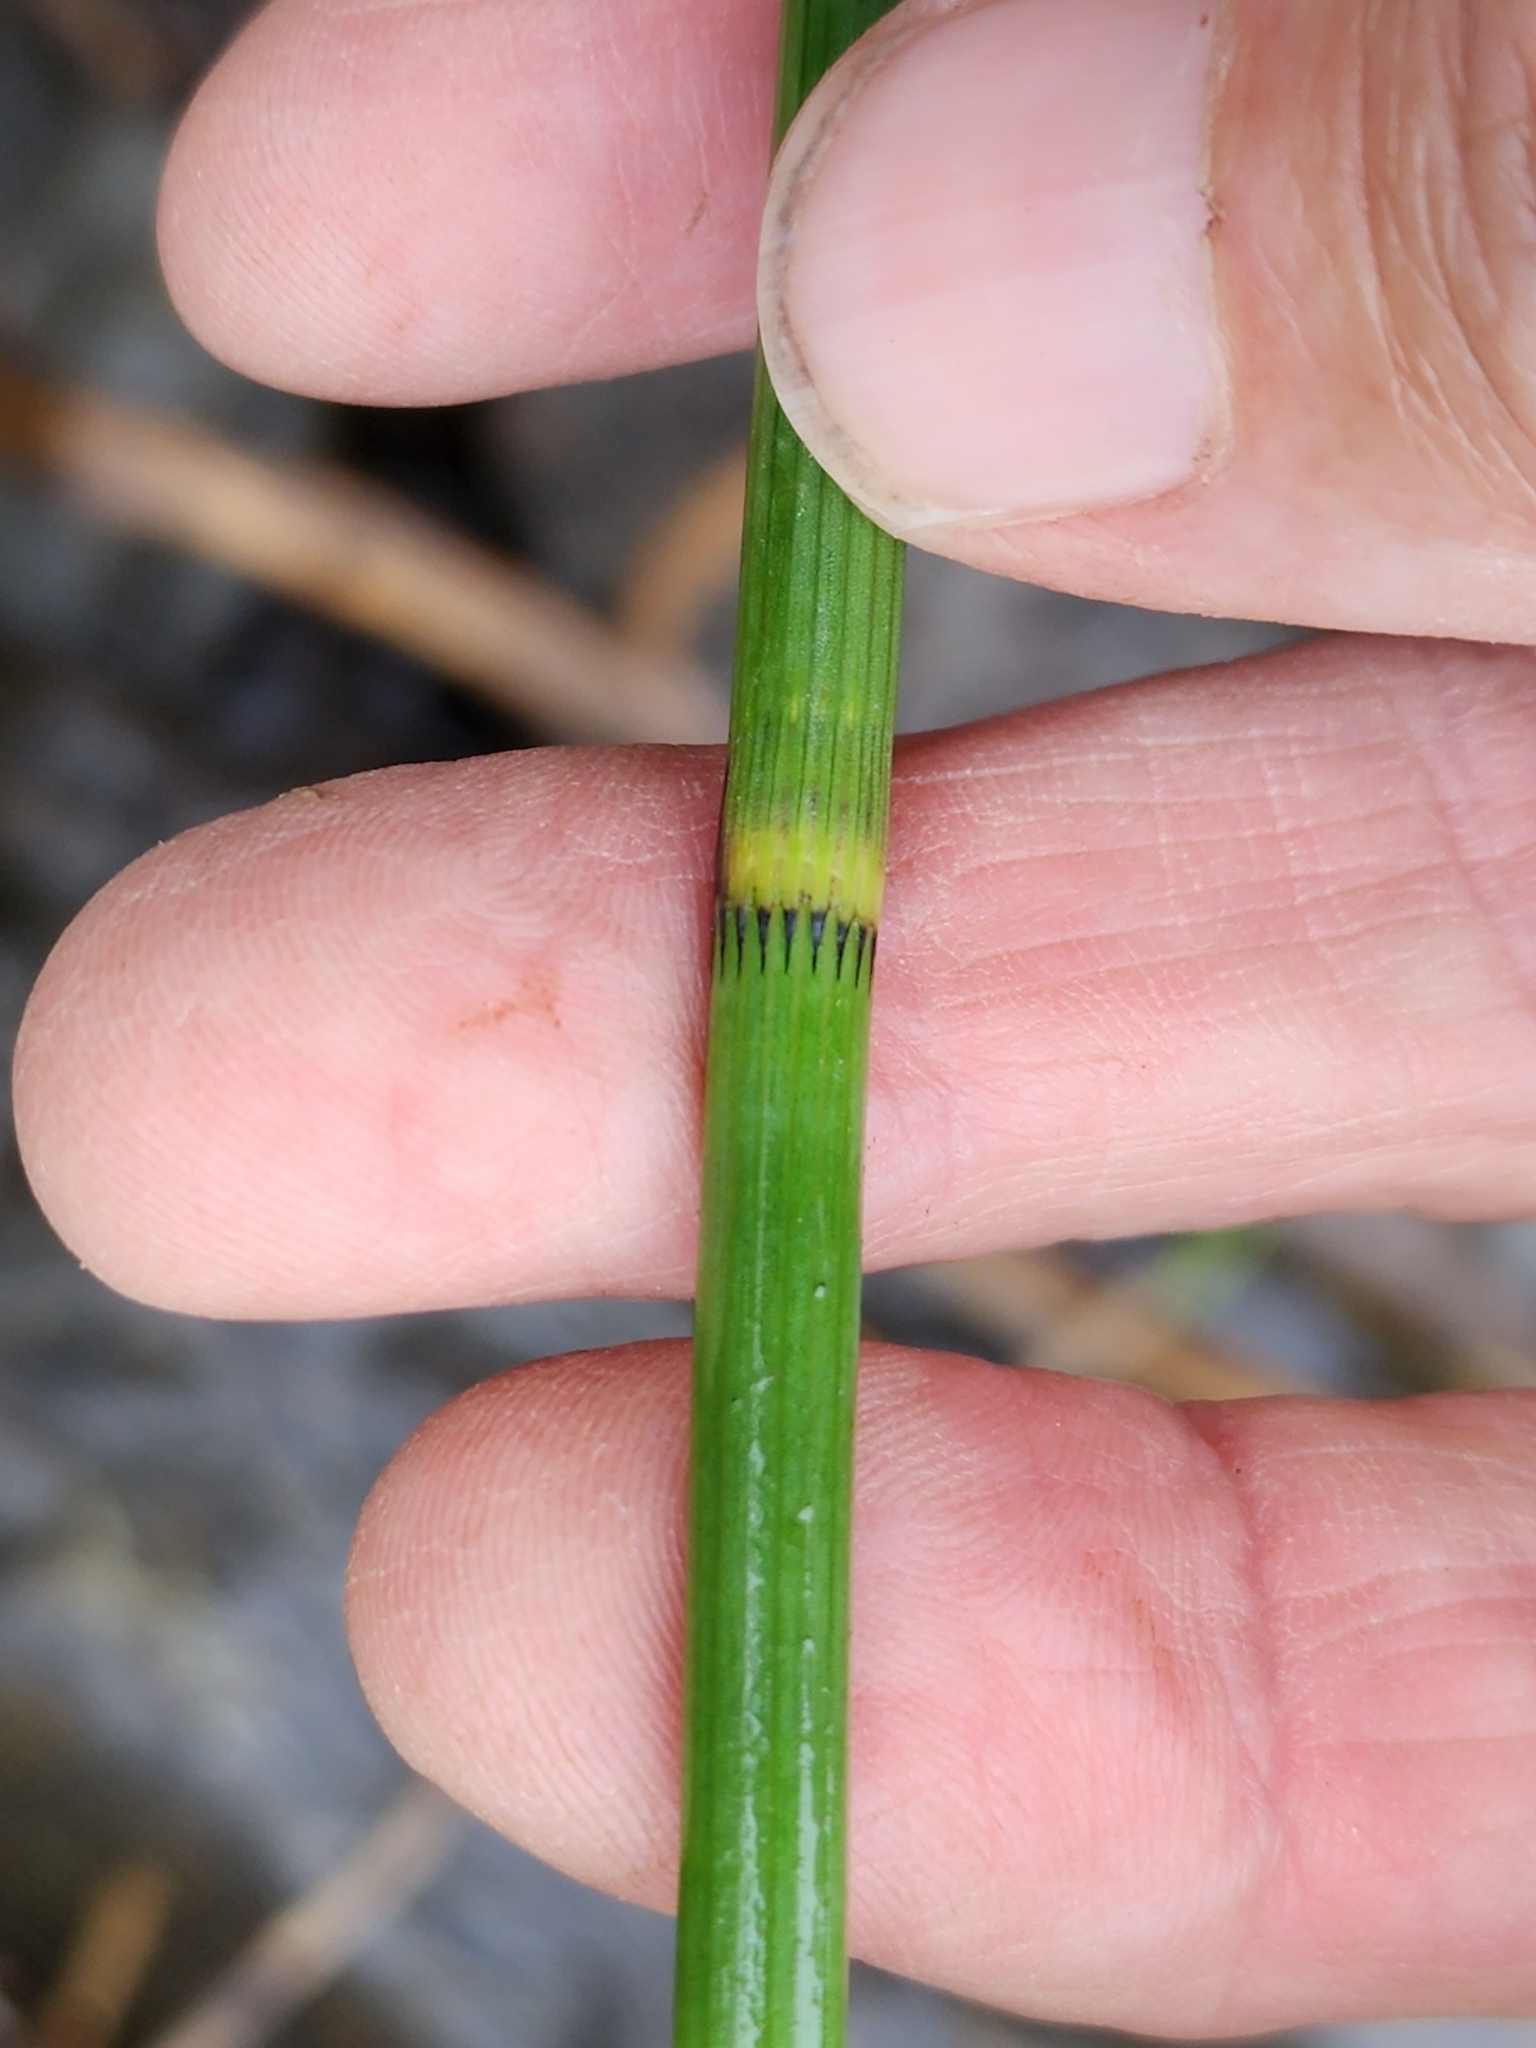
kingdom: Plantae
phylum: Tracheophyta
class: Polypodiopsida
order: Equisetales
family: Equisetaceae
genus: Equisetum
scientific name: Equisetum fluviatile
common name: Water horsetail
